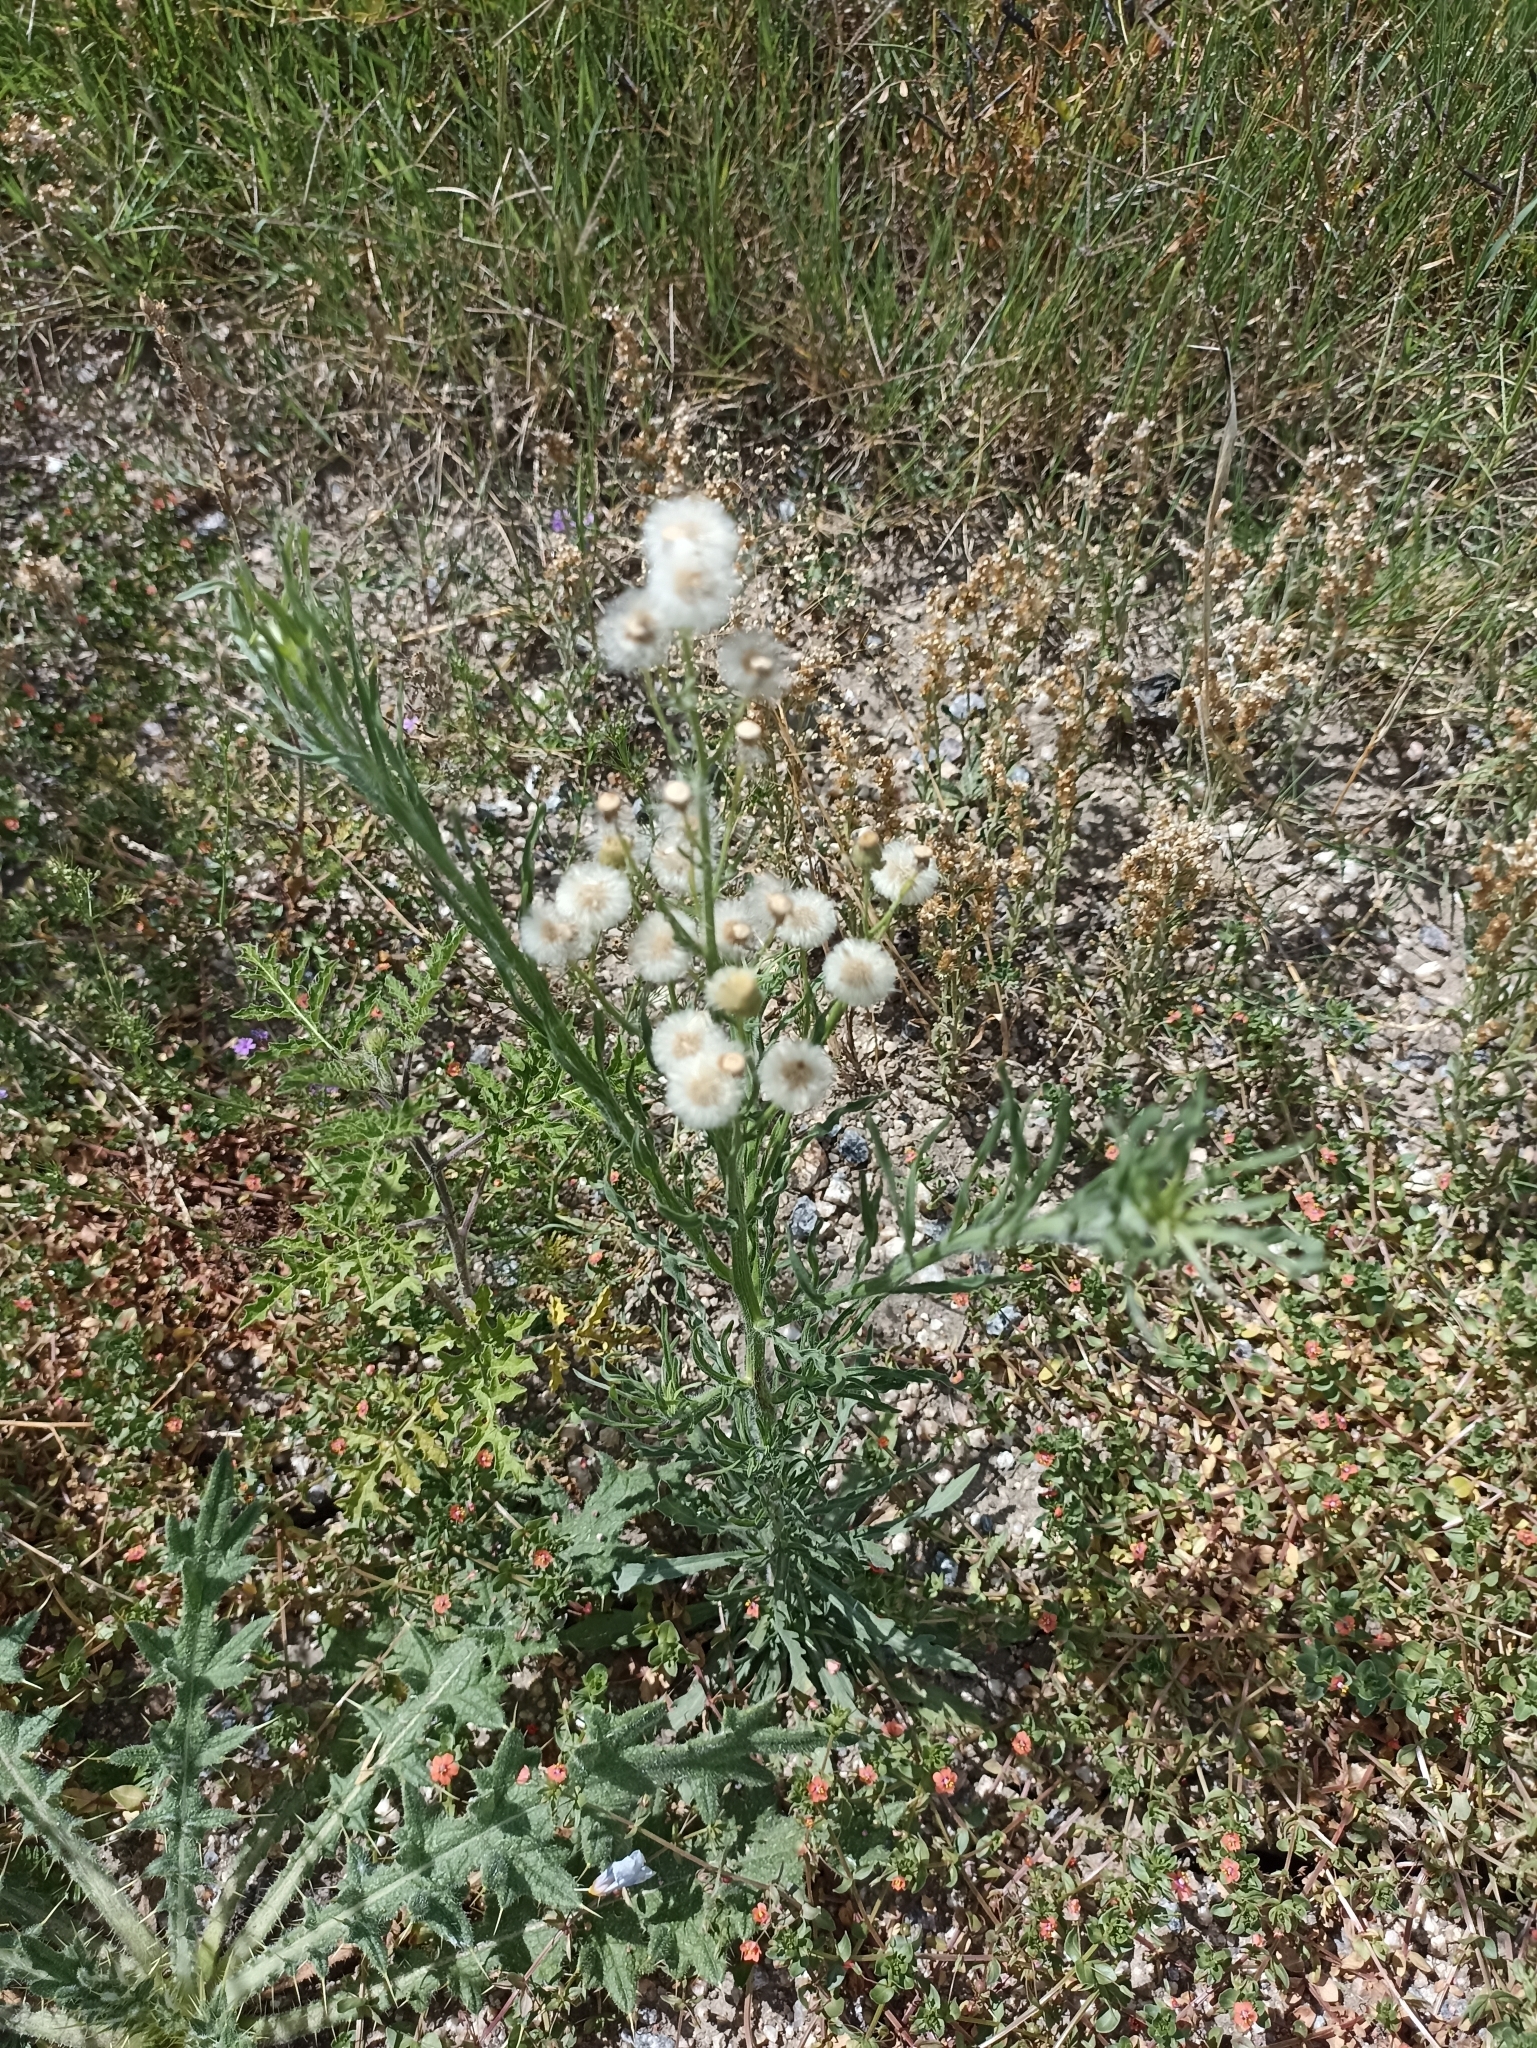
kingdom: Plantae
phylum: Tracheophyta
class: Magnoliopsida
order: Asterales
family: Asteraceae
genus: Erigeron
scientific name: Erigeron bonariensis
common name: Argentine fleabane
